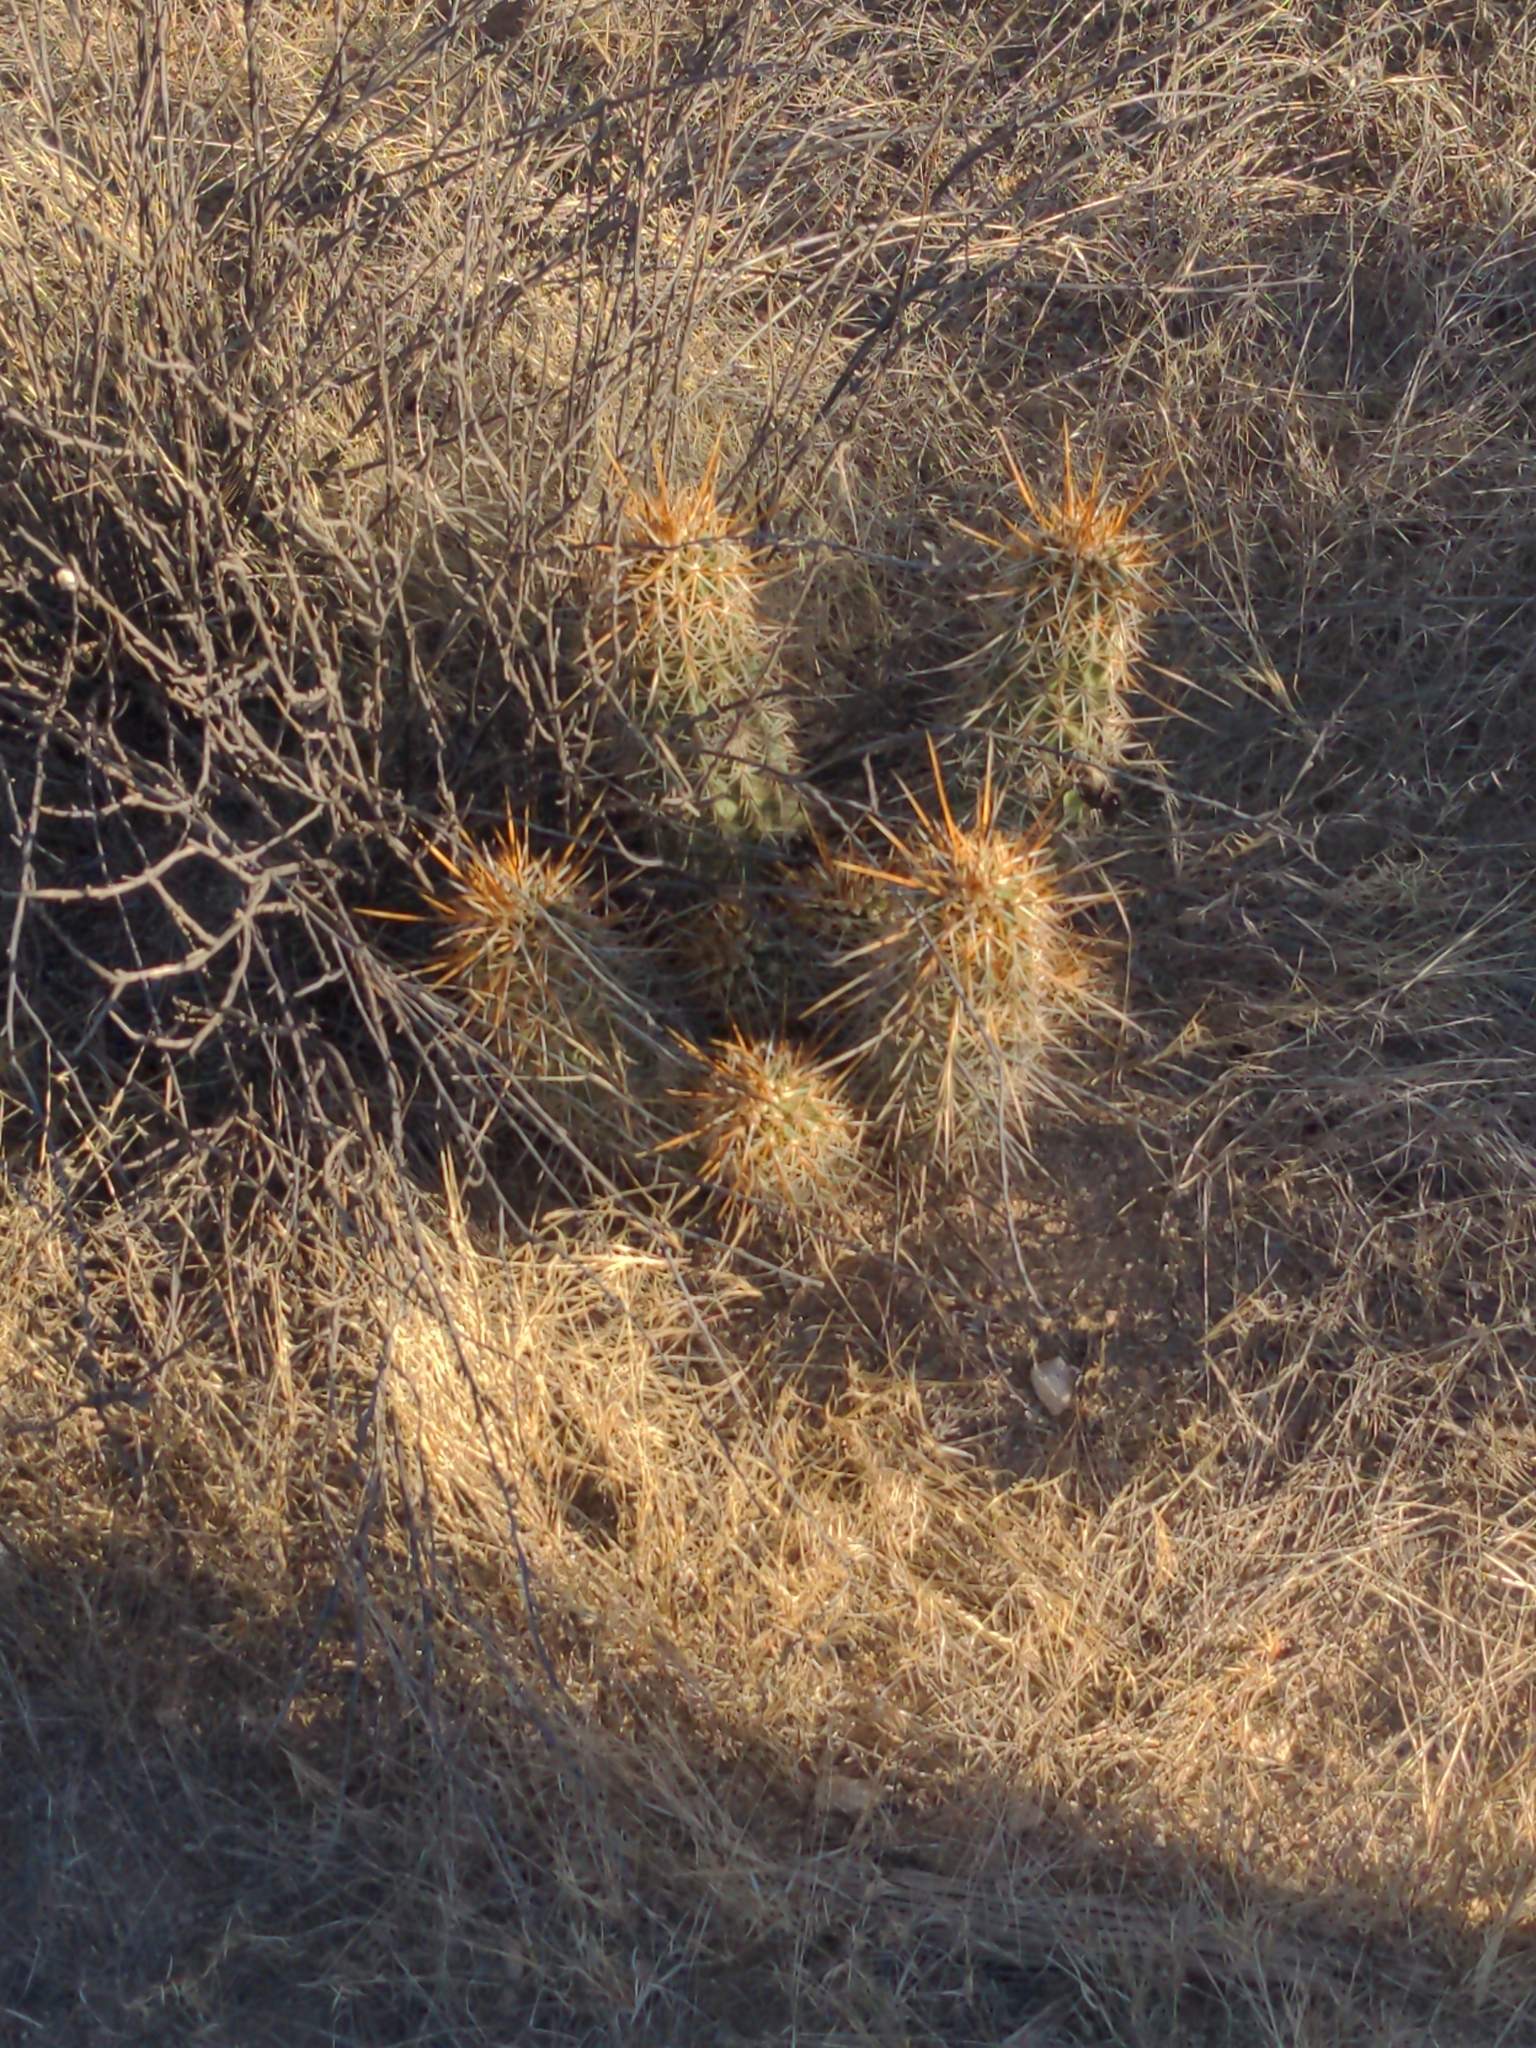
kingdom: Plantae
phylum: Tracheophyta
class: Magnoliopsida
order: Caryophyllales
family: Cactaceae
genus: Echinocereus
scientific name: Echinocereus engelmannii
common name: Engelmann's hedgehog cactus
